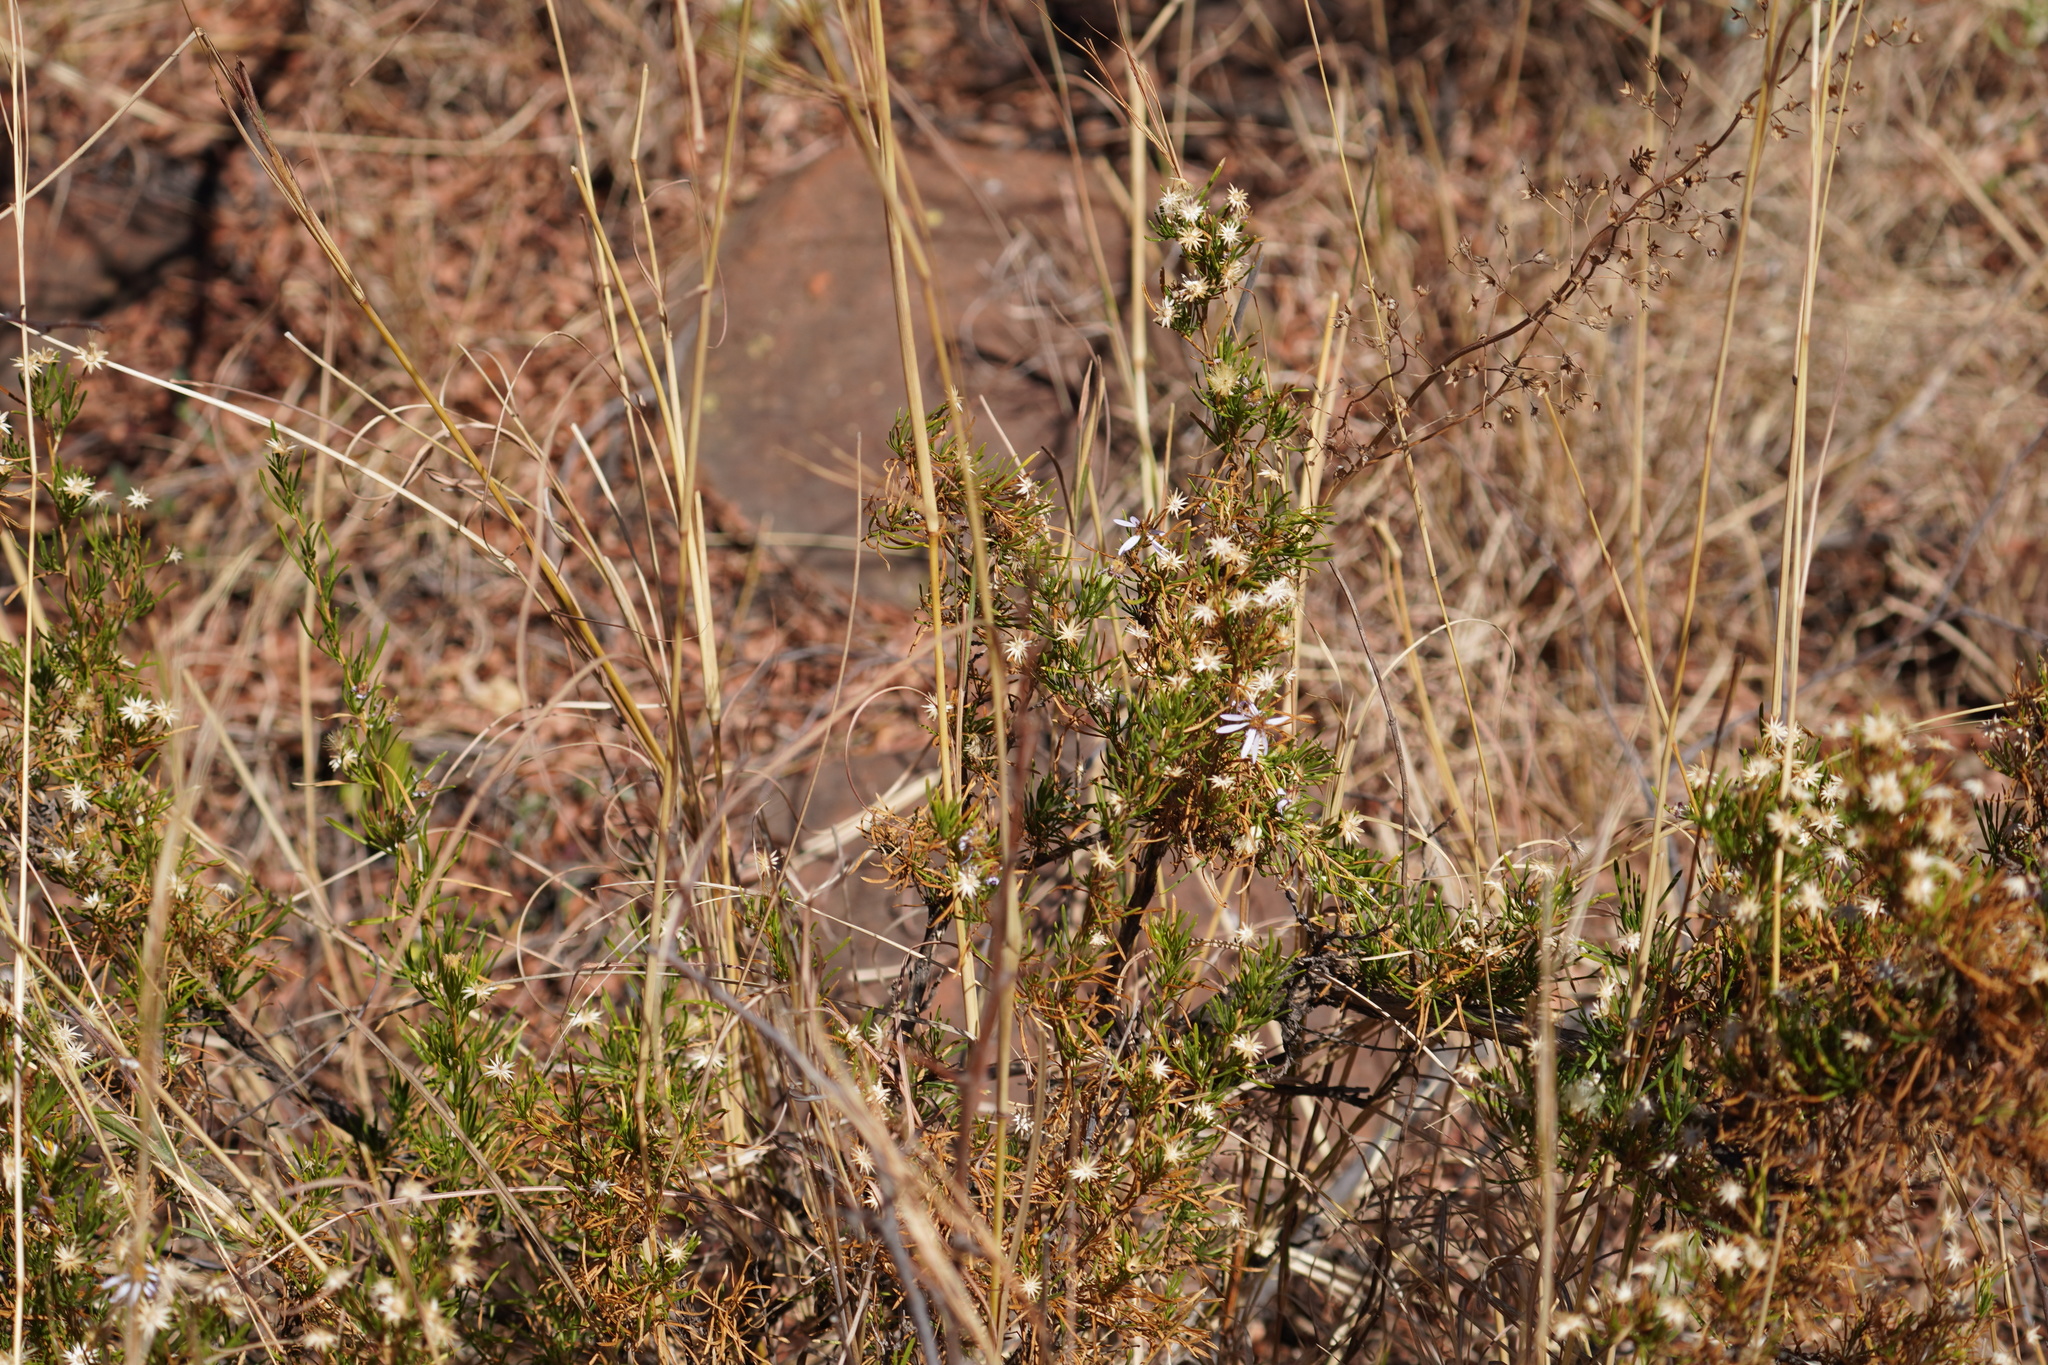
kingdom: Plantae
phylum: Tracheophyta
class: Magnoliopsida
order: Asterales
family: Asteraceae
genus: Felicia
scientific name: Felicia filifolia
